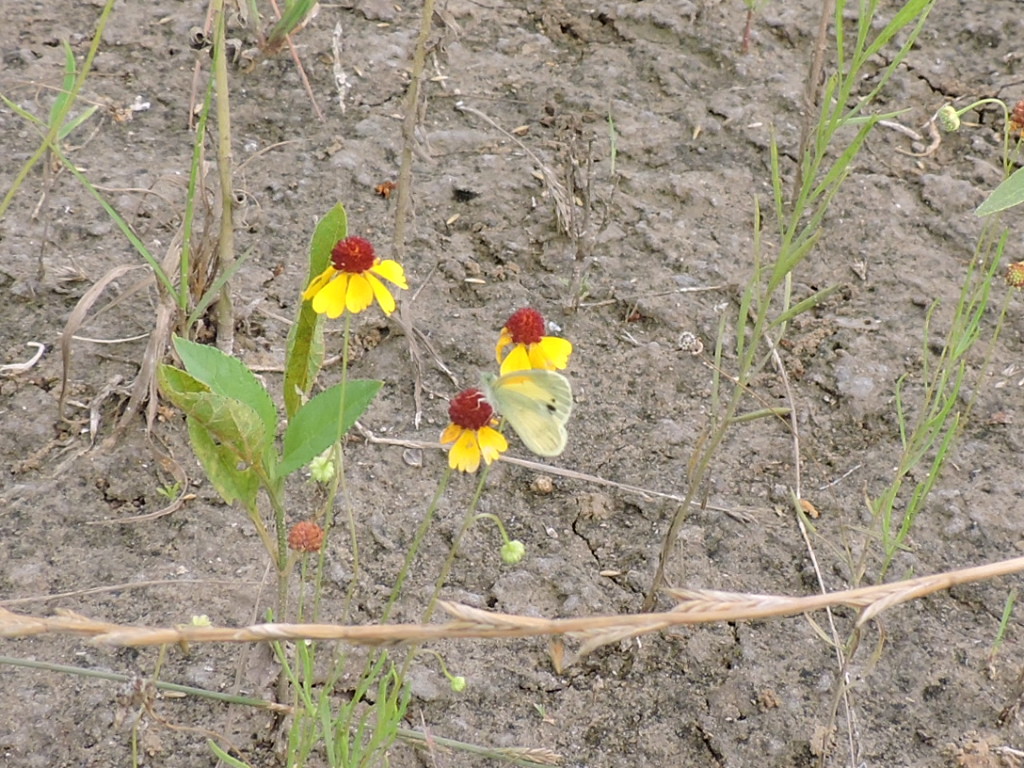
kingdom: Animalia
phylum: Arthropoda
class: Insecta
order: Lepidoptera
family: Pieridae
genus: Nathalis
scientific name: Nathalis iole
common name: Dainty sulphur
